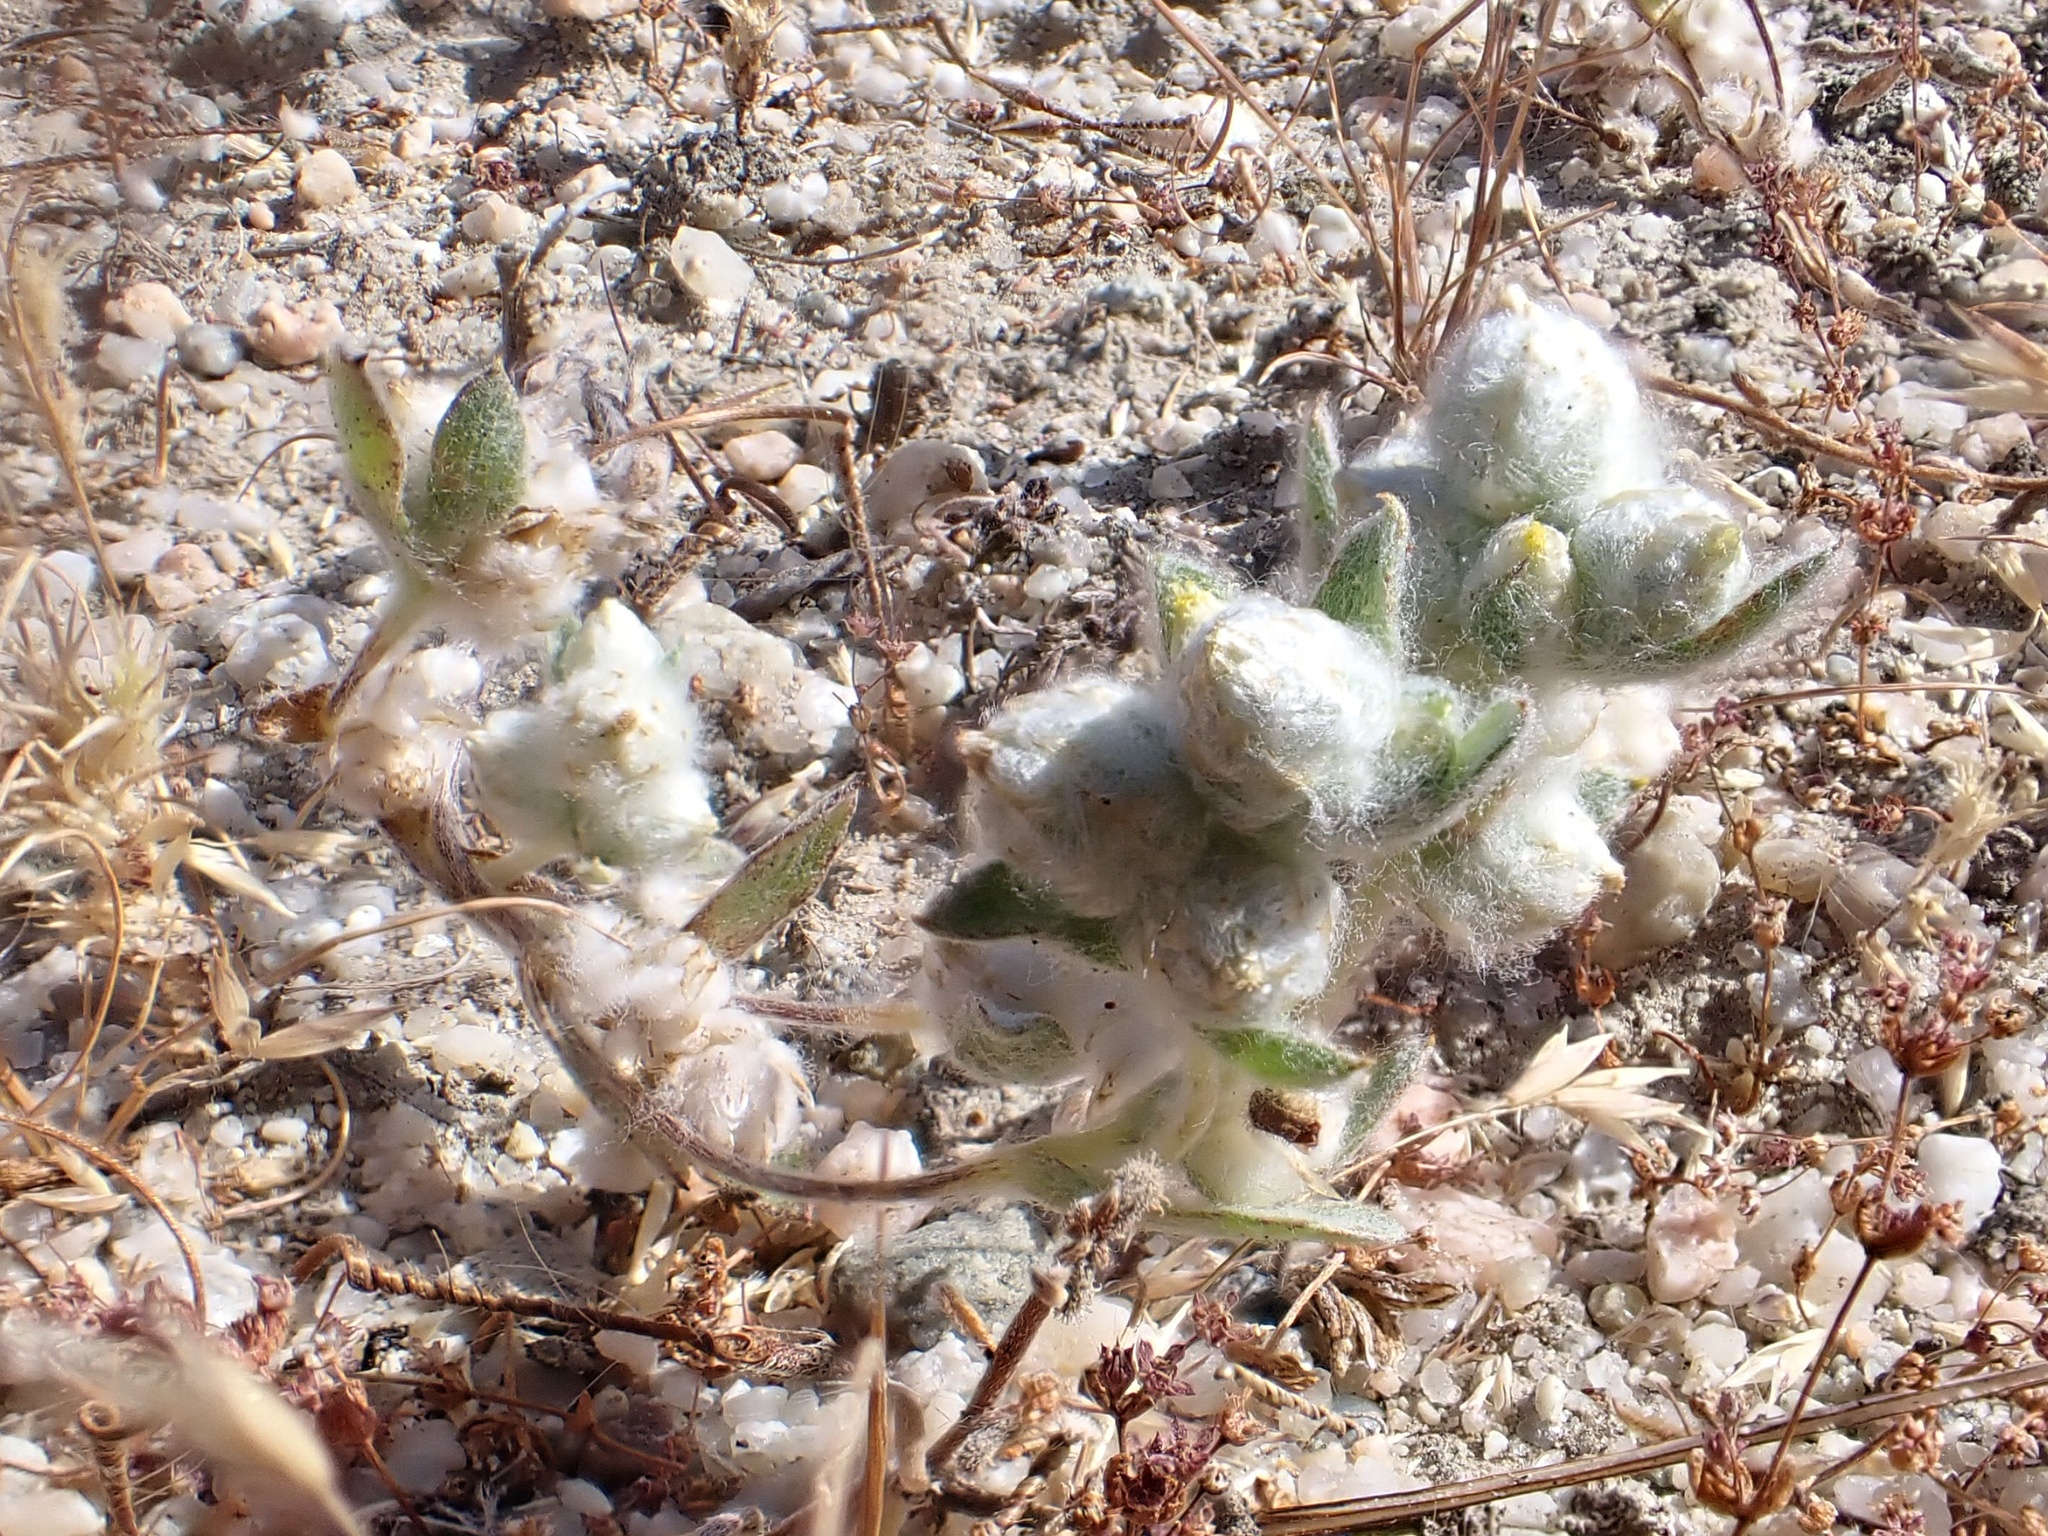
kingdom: Plantae
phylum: Tracheophyta
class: Magnoliopsida
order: Asterales
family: Asteraceae
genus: Stylocline
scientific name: Stylocline citroleum
